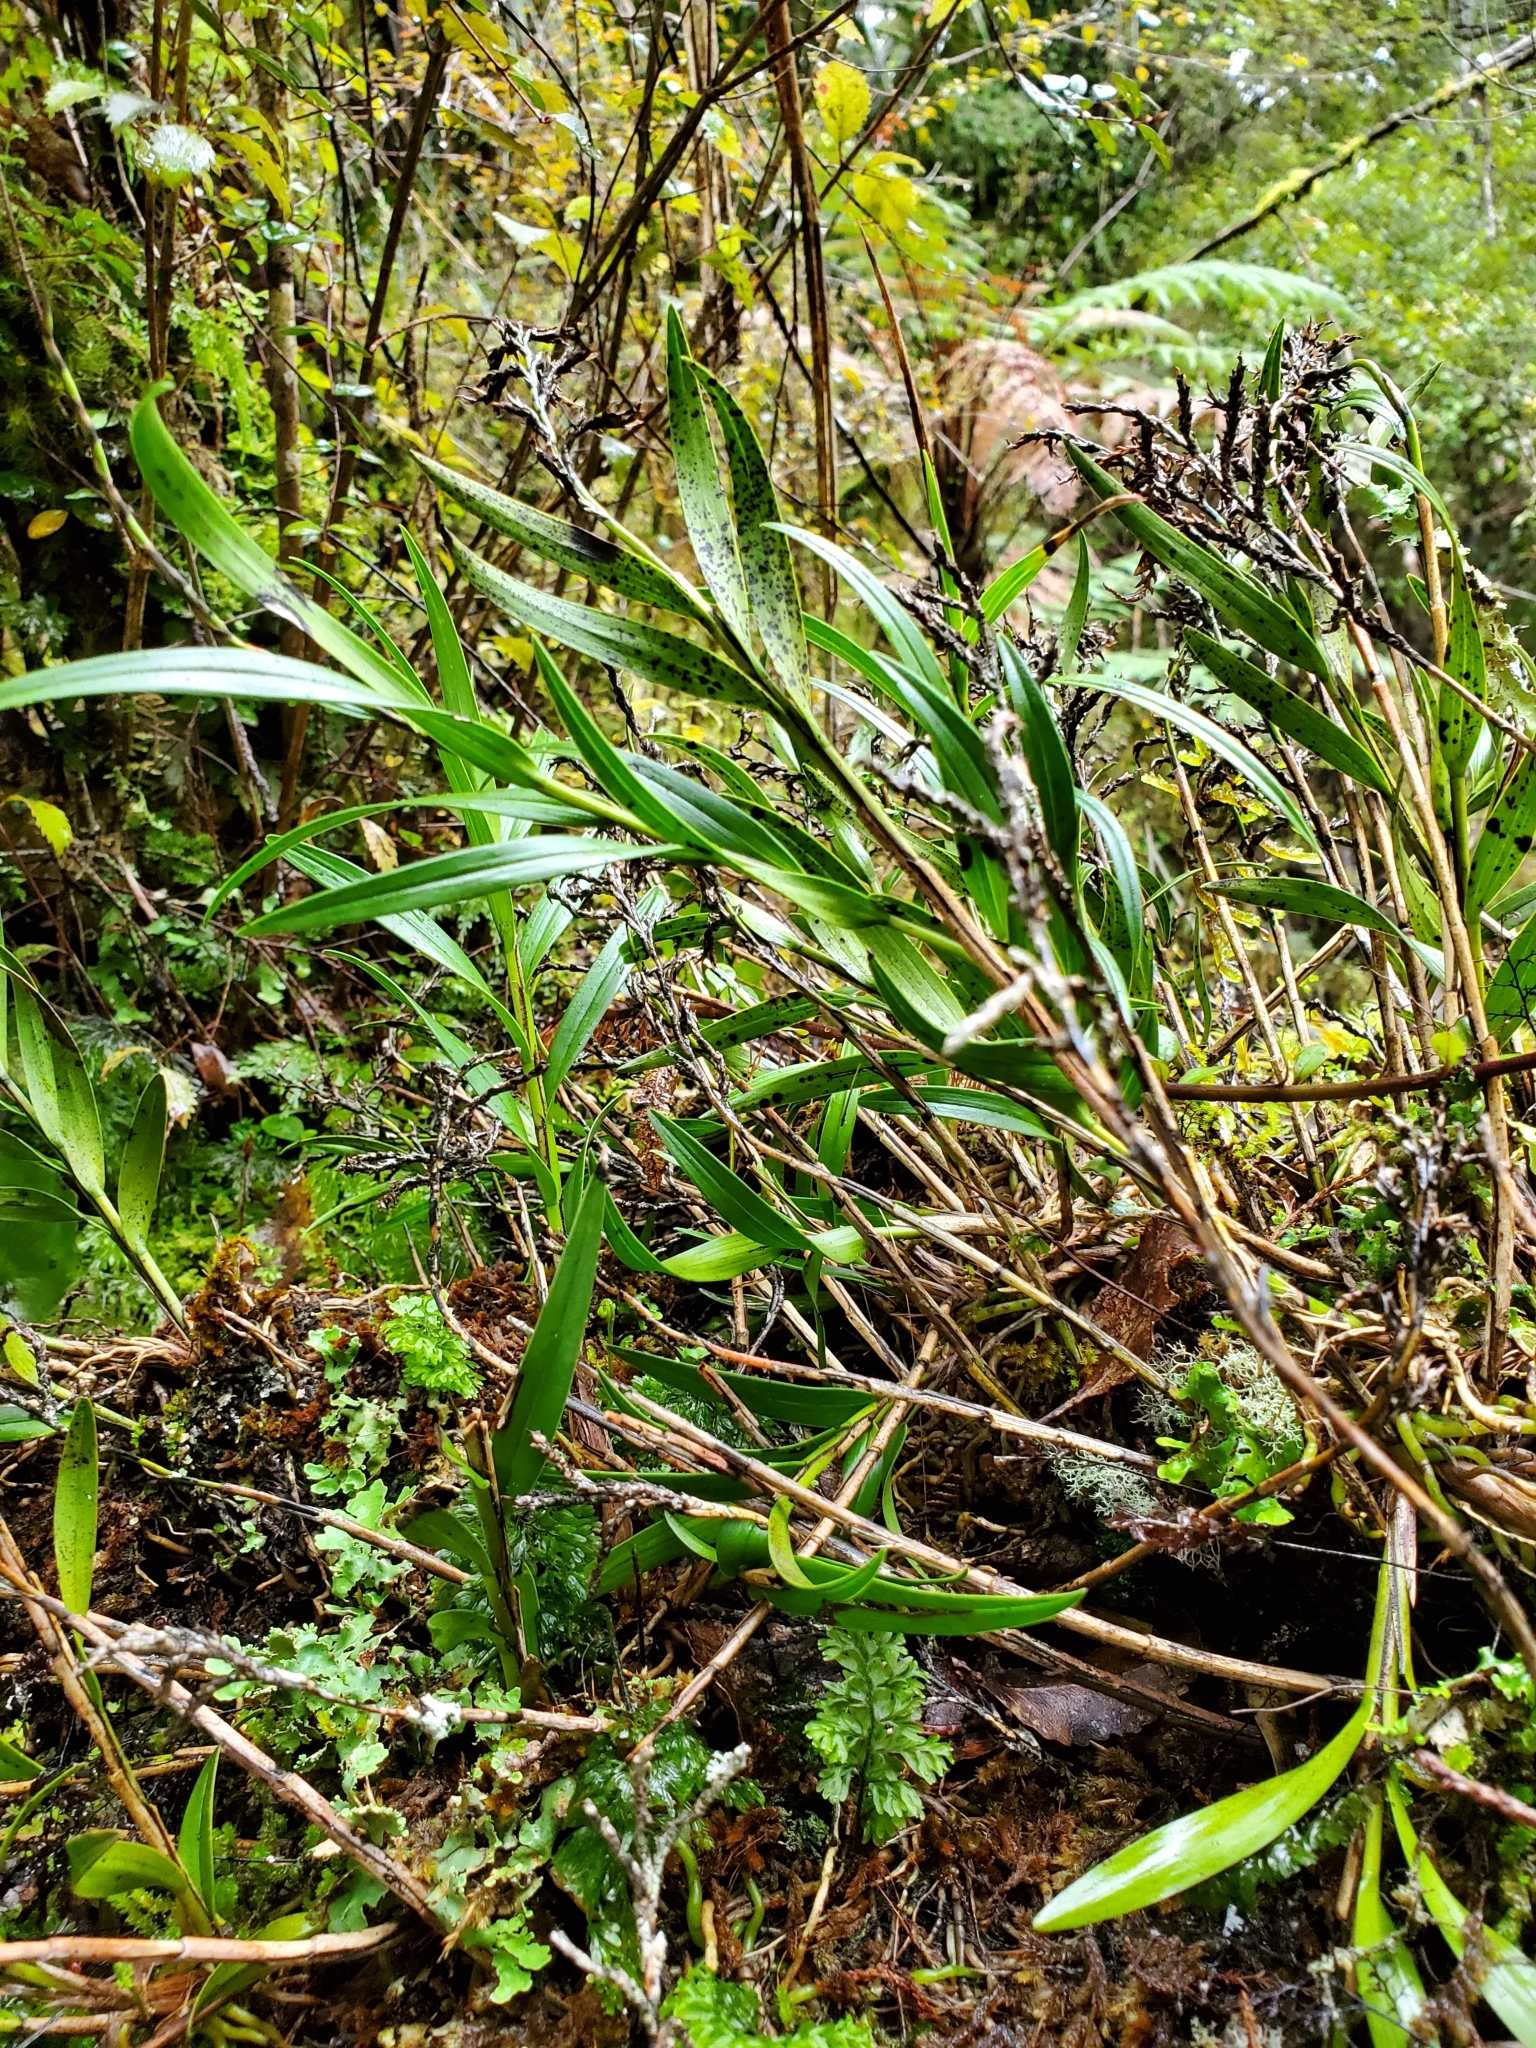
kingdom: Plantae
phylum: Tracheophyta
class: Liliopsida
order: Asparagales
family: Orchidaceae
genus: Earina
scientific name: Earina autumnalis
